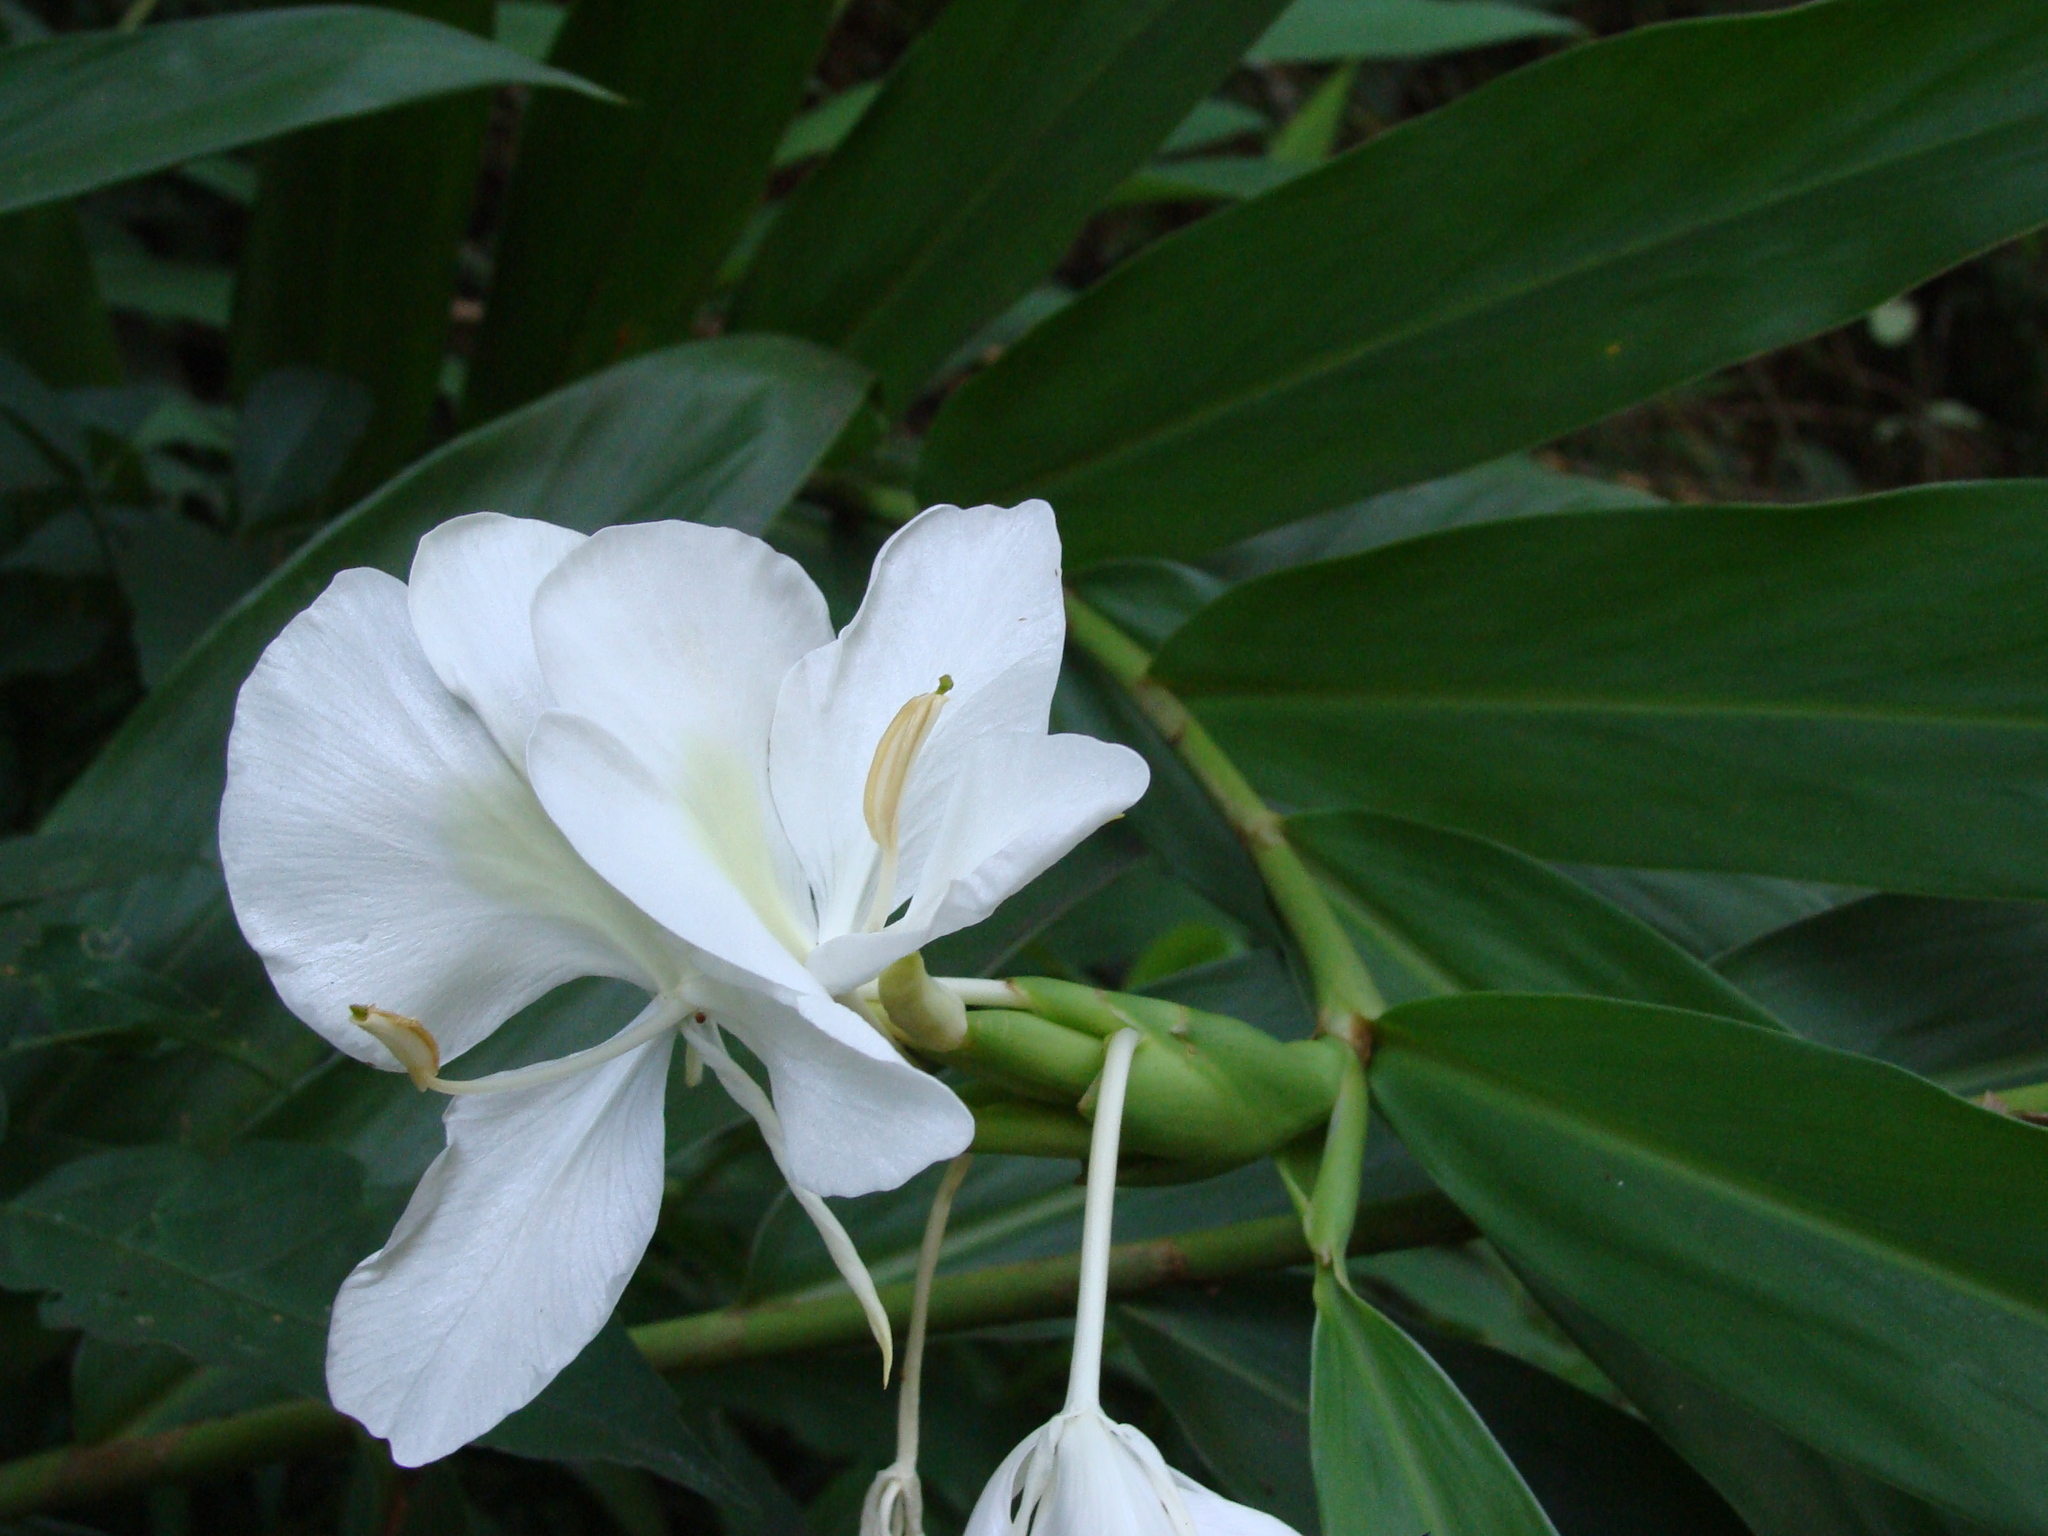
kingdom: Plantae
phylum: Tracheophyta
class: Liliopsida
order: Zingiberales
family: Zingiberaceae
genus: Hedychium
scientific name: Hedychium coronarium
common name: White garland-lily
